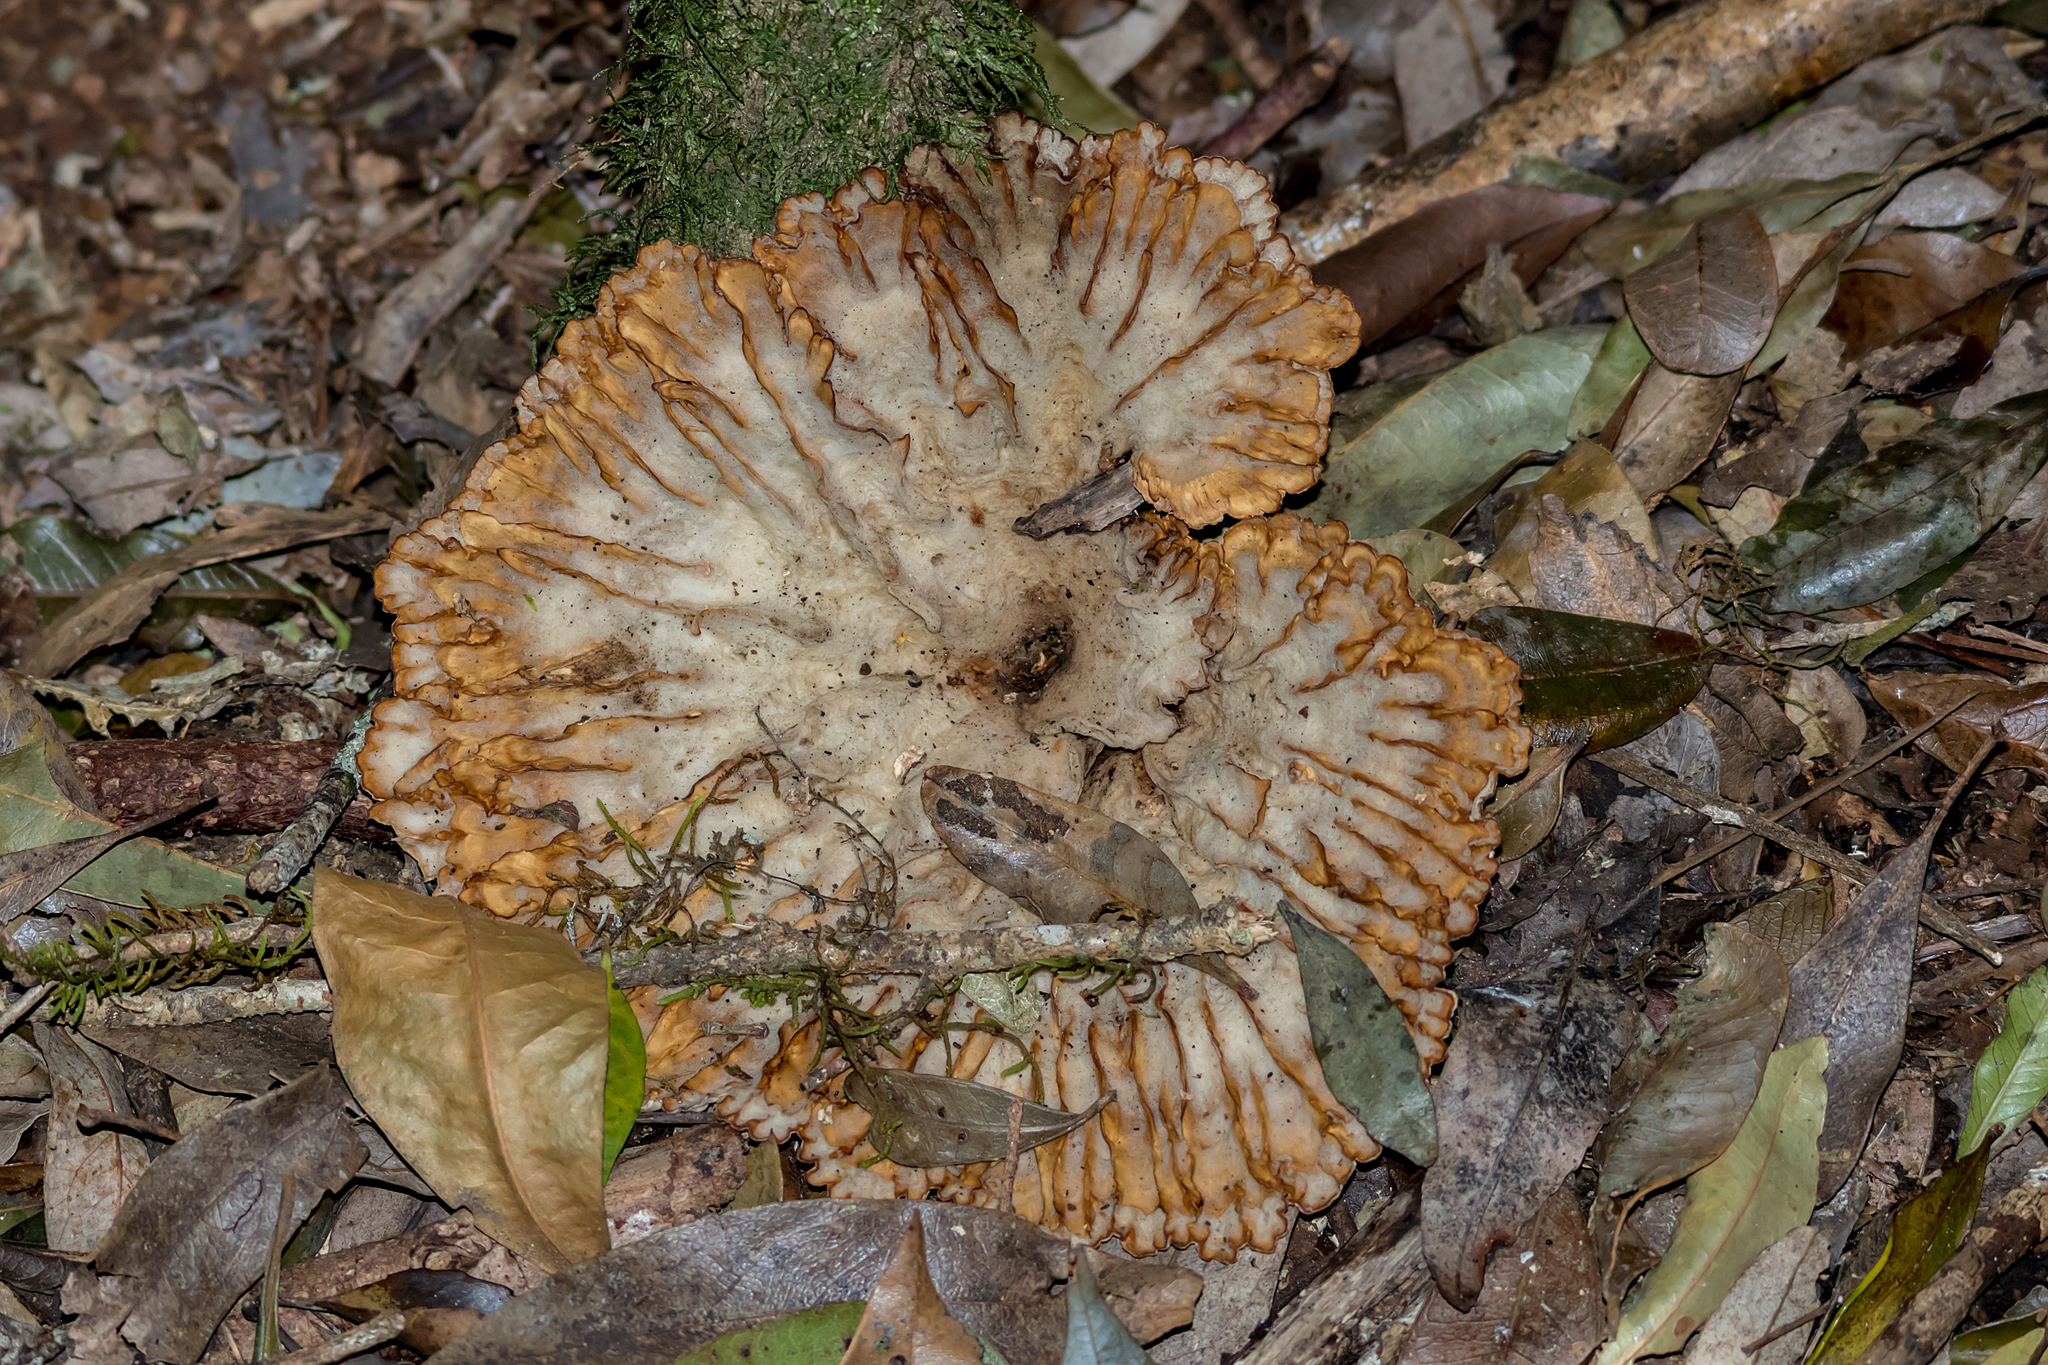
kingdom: Fungi
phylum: Basidiomycota
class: Agaricomycetes
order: Polyporales
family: Panaceae
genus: Cymatoderma
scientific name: Cymatoderma elegans
